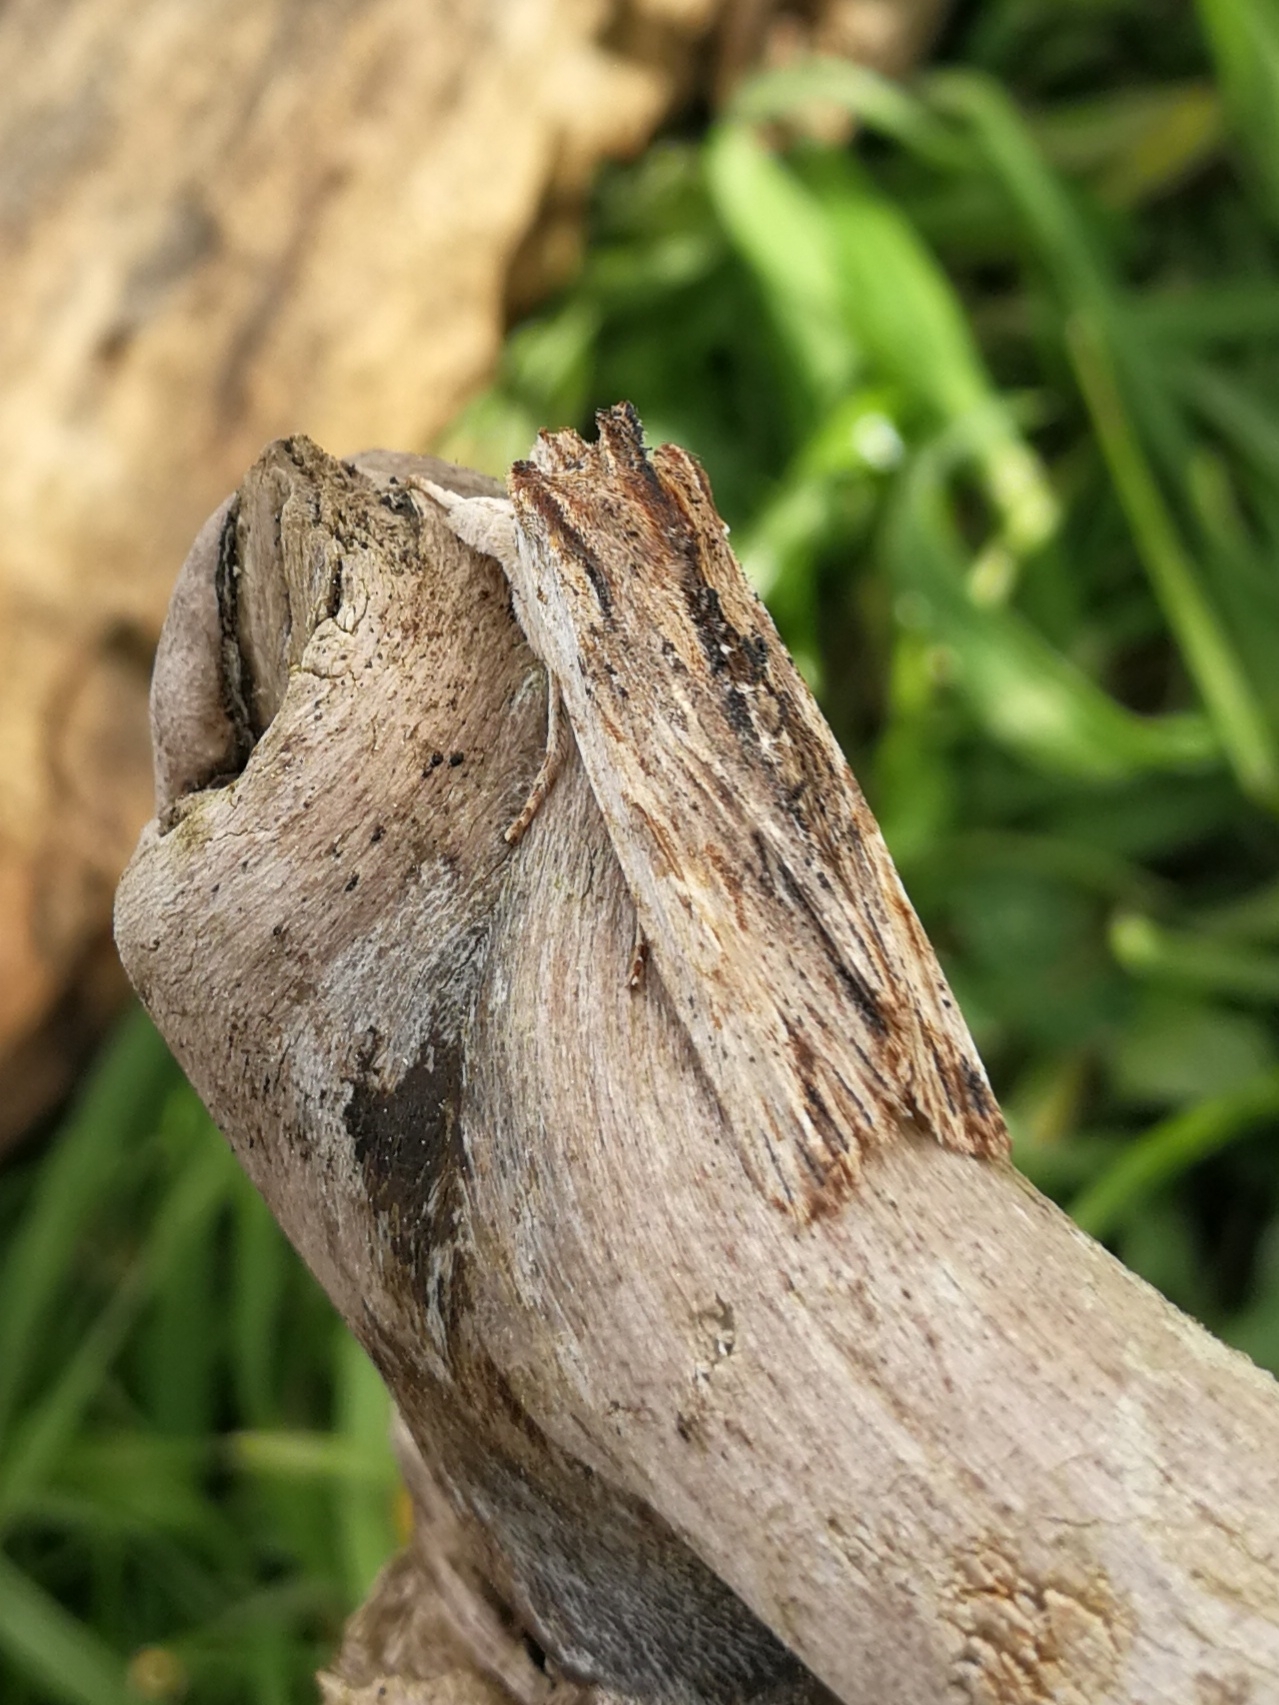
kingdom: Animalia
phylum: Arthropoda
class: Insecta
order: Lepidoptera
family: Noctuidae
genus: Lithophane
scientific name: Lithophane semibrunnea
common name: Tawny pinion
